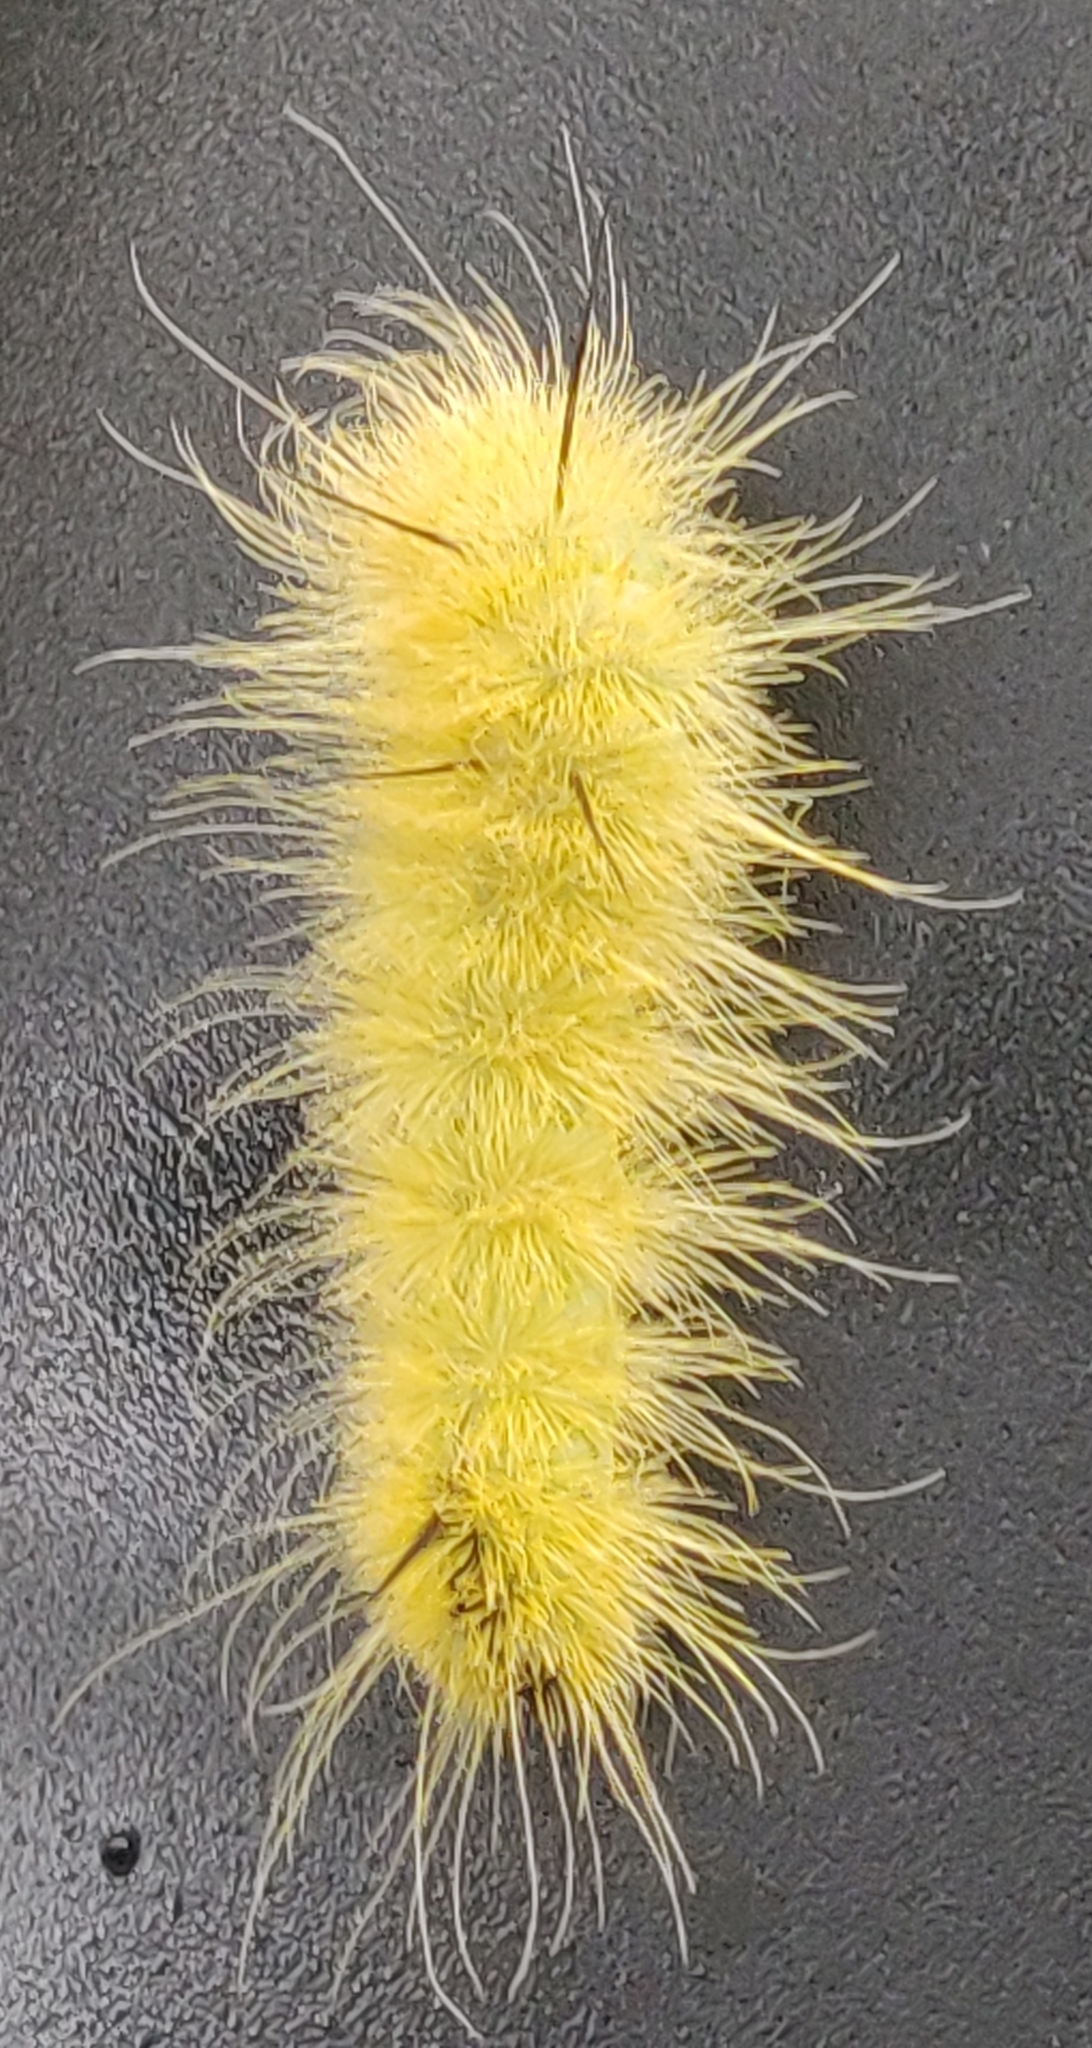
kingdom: Animalia
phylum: Arthropoda
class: Insecta
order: Lepidoptera
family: Noctuidae
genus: Acronicta
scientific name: Acronicta americana
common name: American dagger
